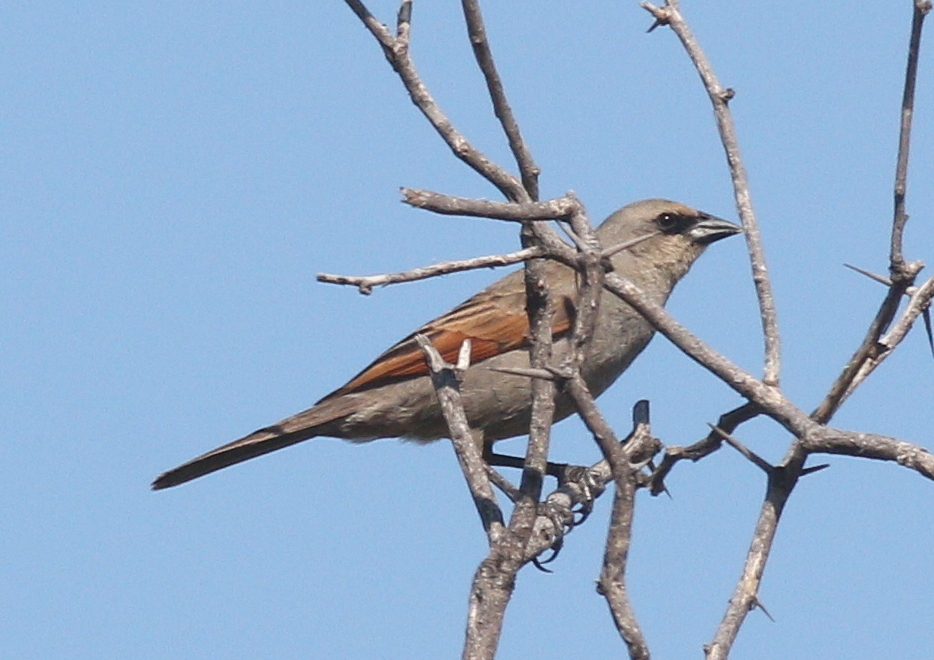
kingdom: Animalia
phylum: Chordata
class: Aves
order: Passeriformes
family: Icteridae
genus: Agelaioides
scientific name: Agelaioides badius
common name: Baywing
